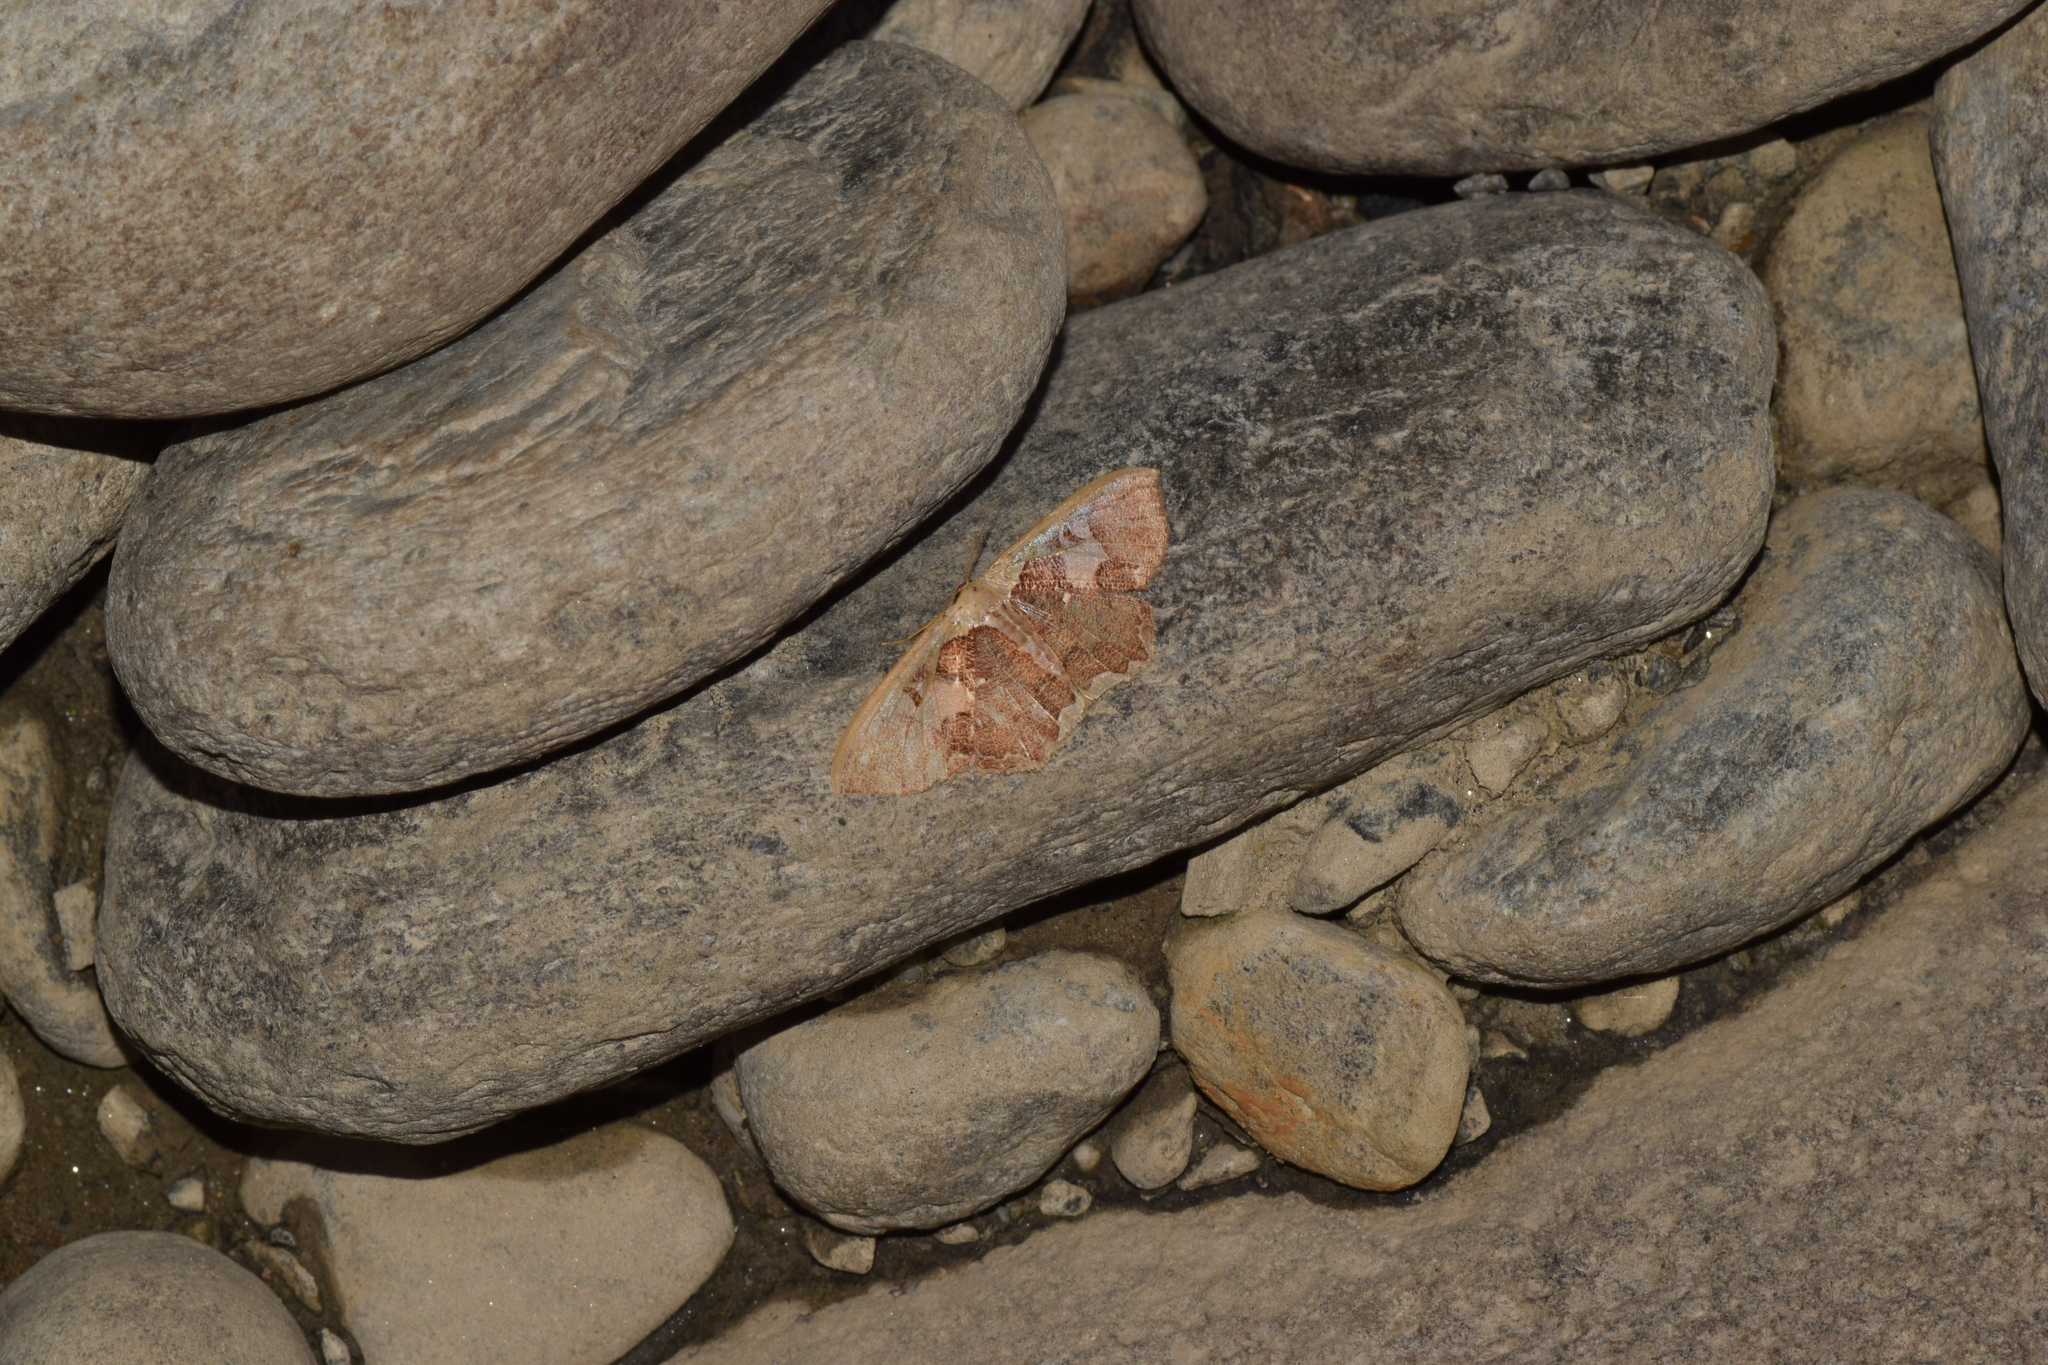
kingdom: Animalia
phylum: Arthropoda
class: Insecta
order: Lepidoptera
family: Geometridae
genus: Zythos
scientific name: Zythos avellanea
